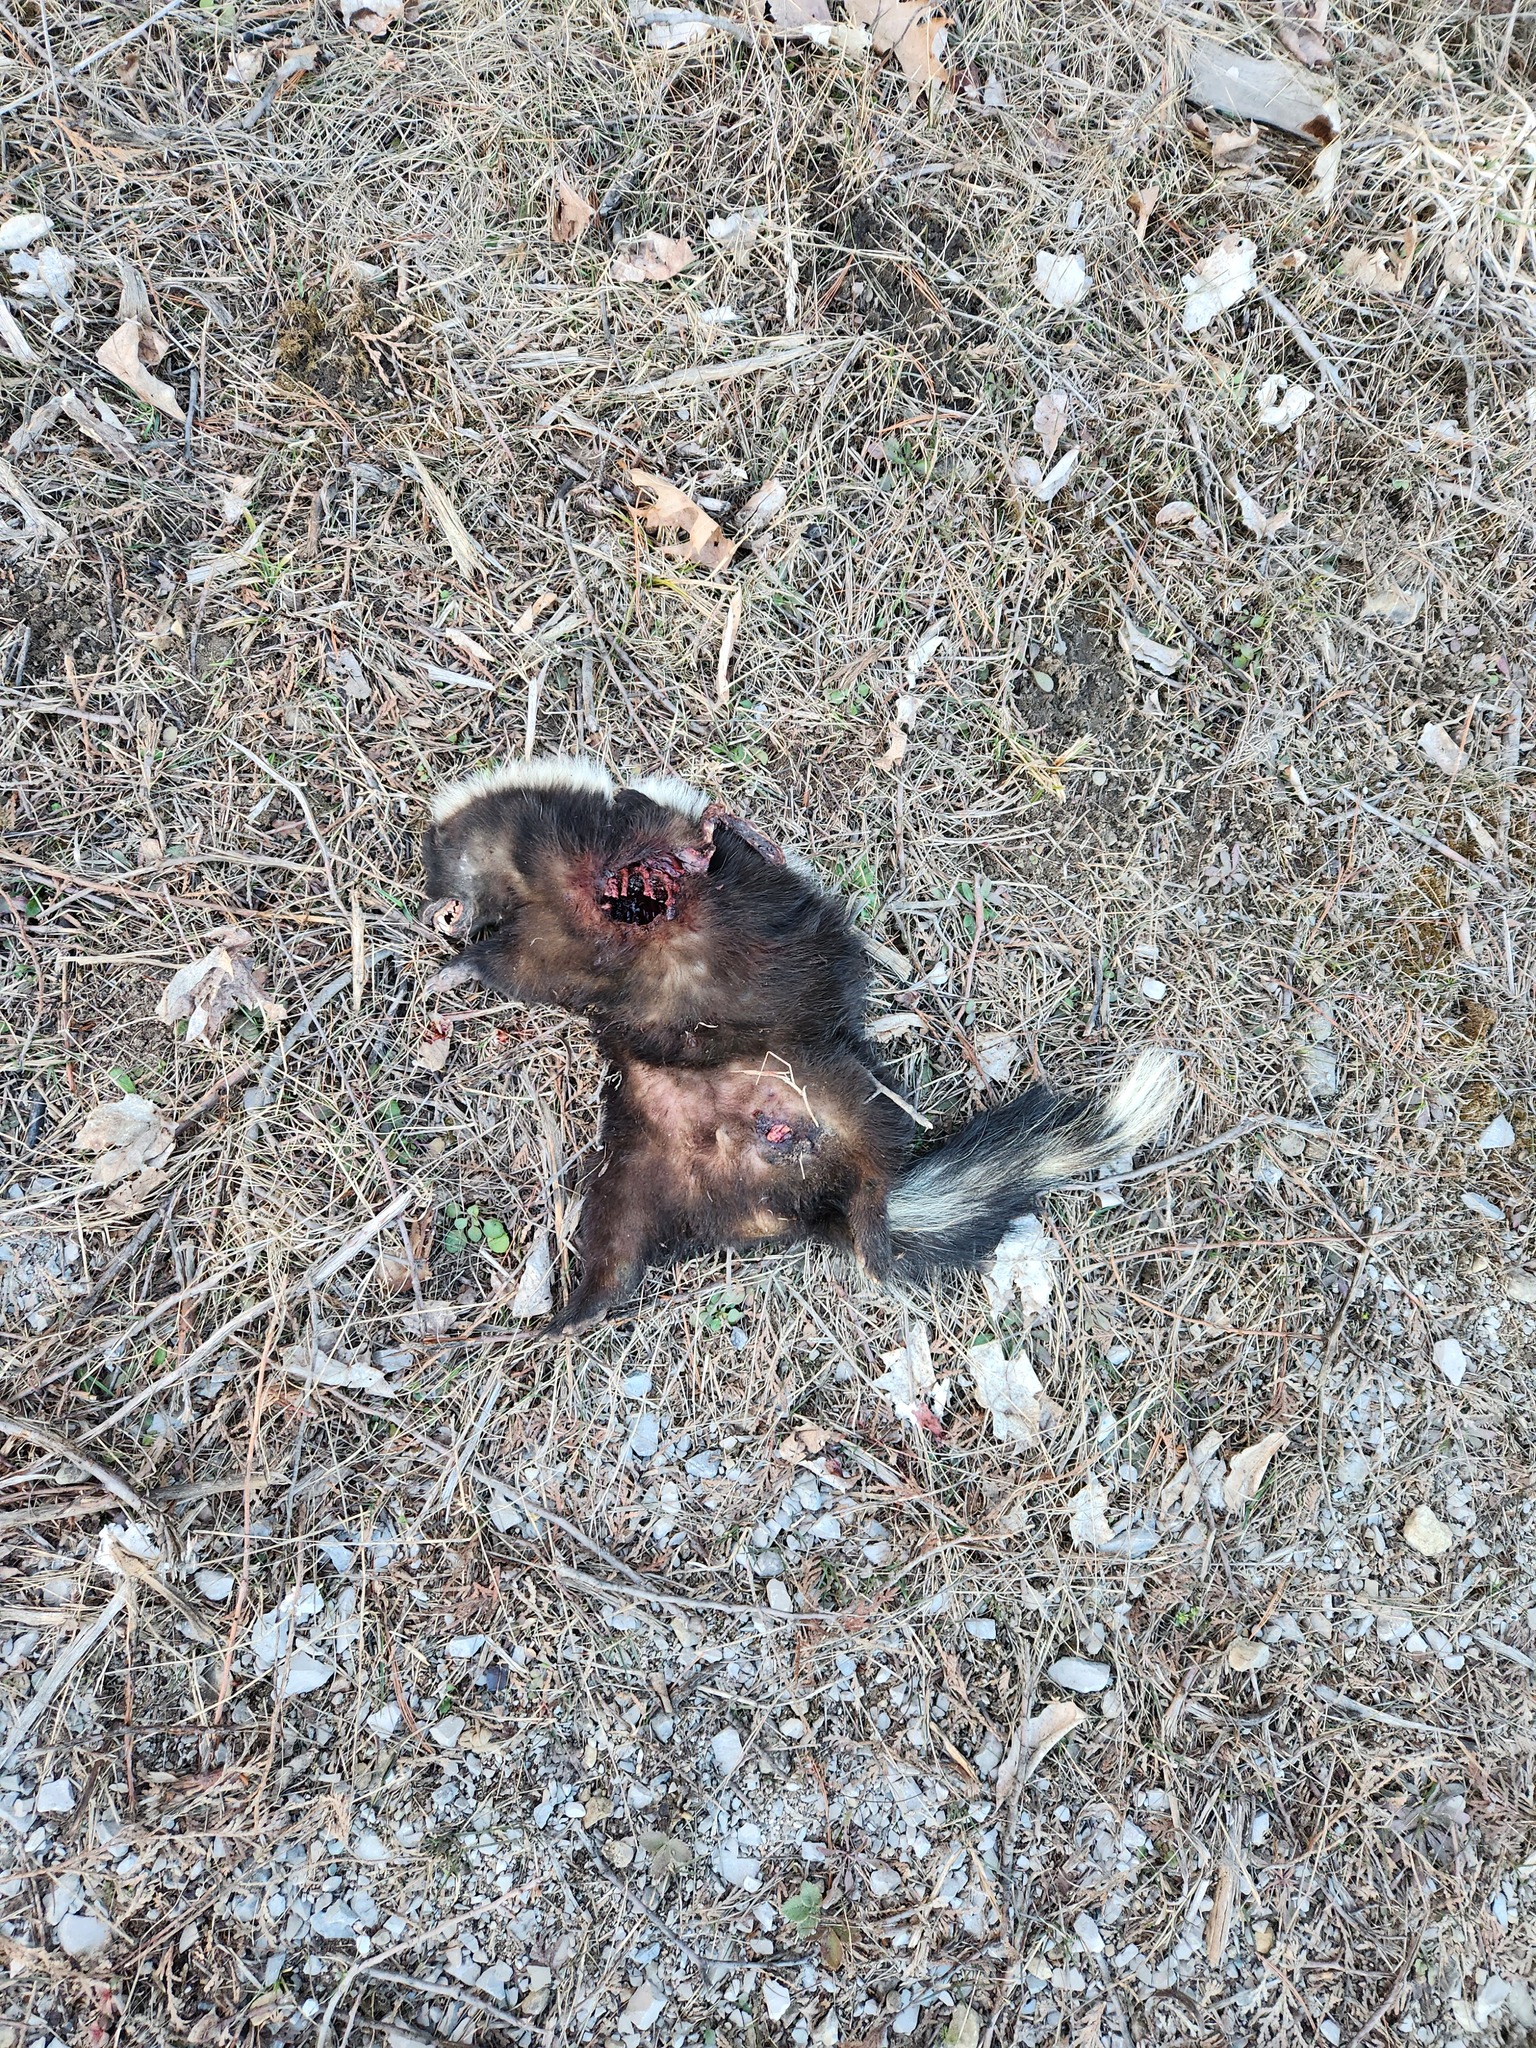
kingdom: Animalia
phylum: Chordata
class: Mammalia
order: Carnivora
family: Mephitidae
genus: Mephitis
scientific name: Mephitis mephitis
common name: Striped skunk
